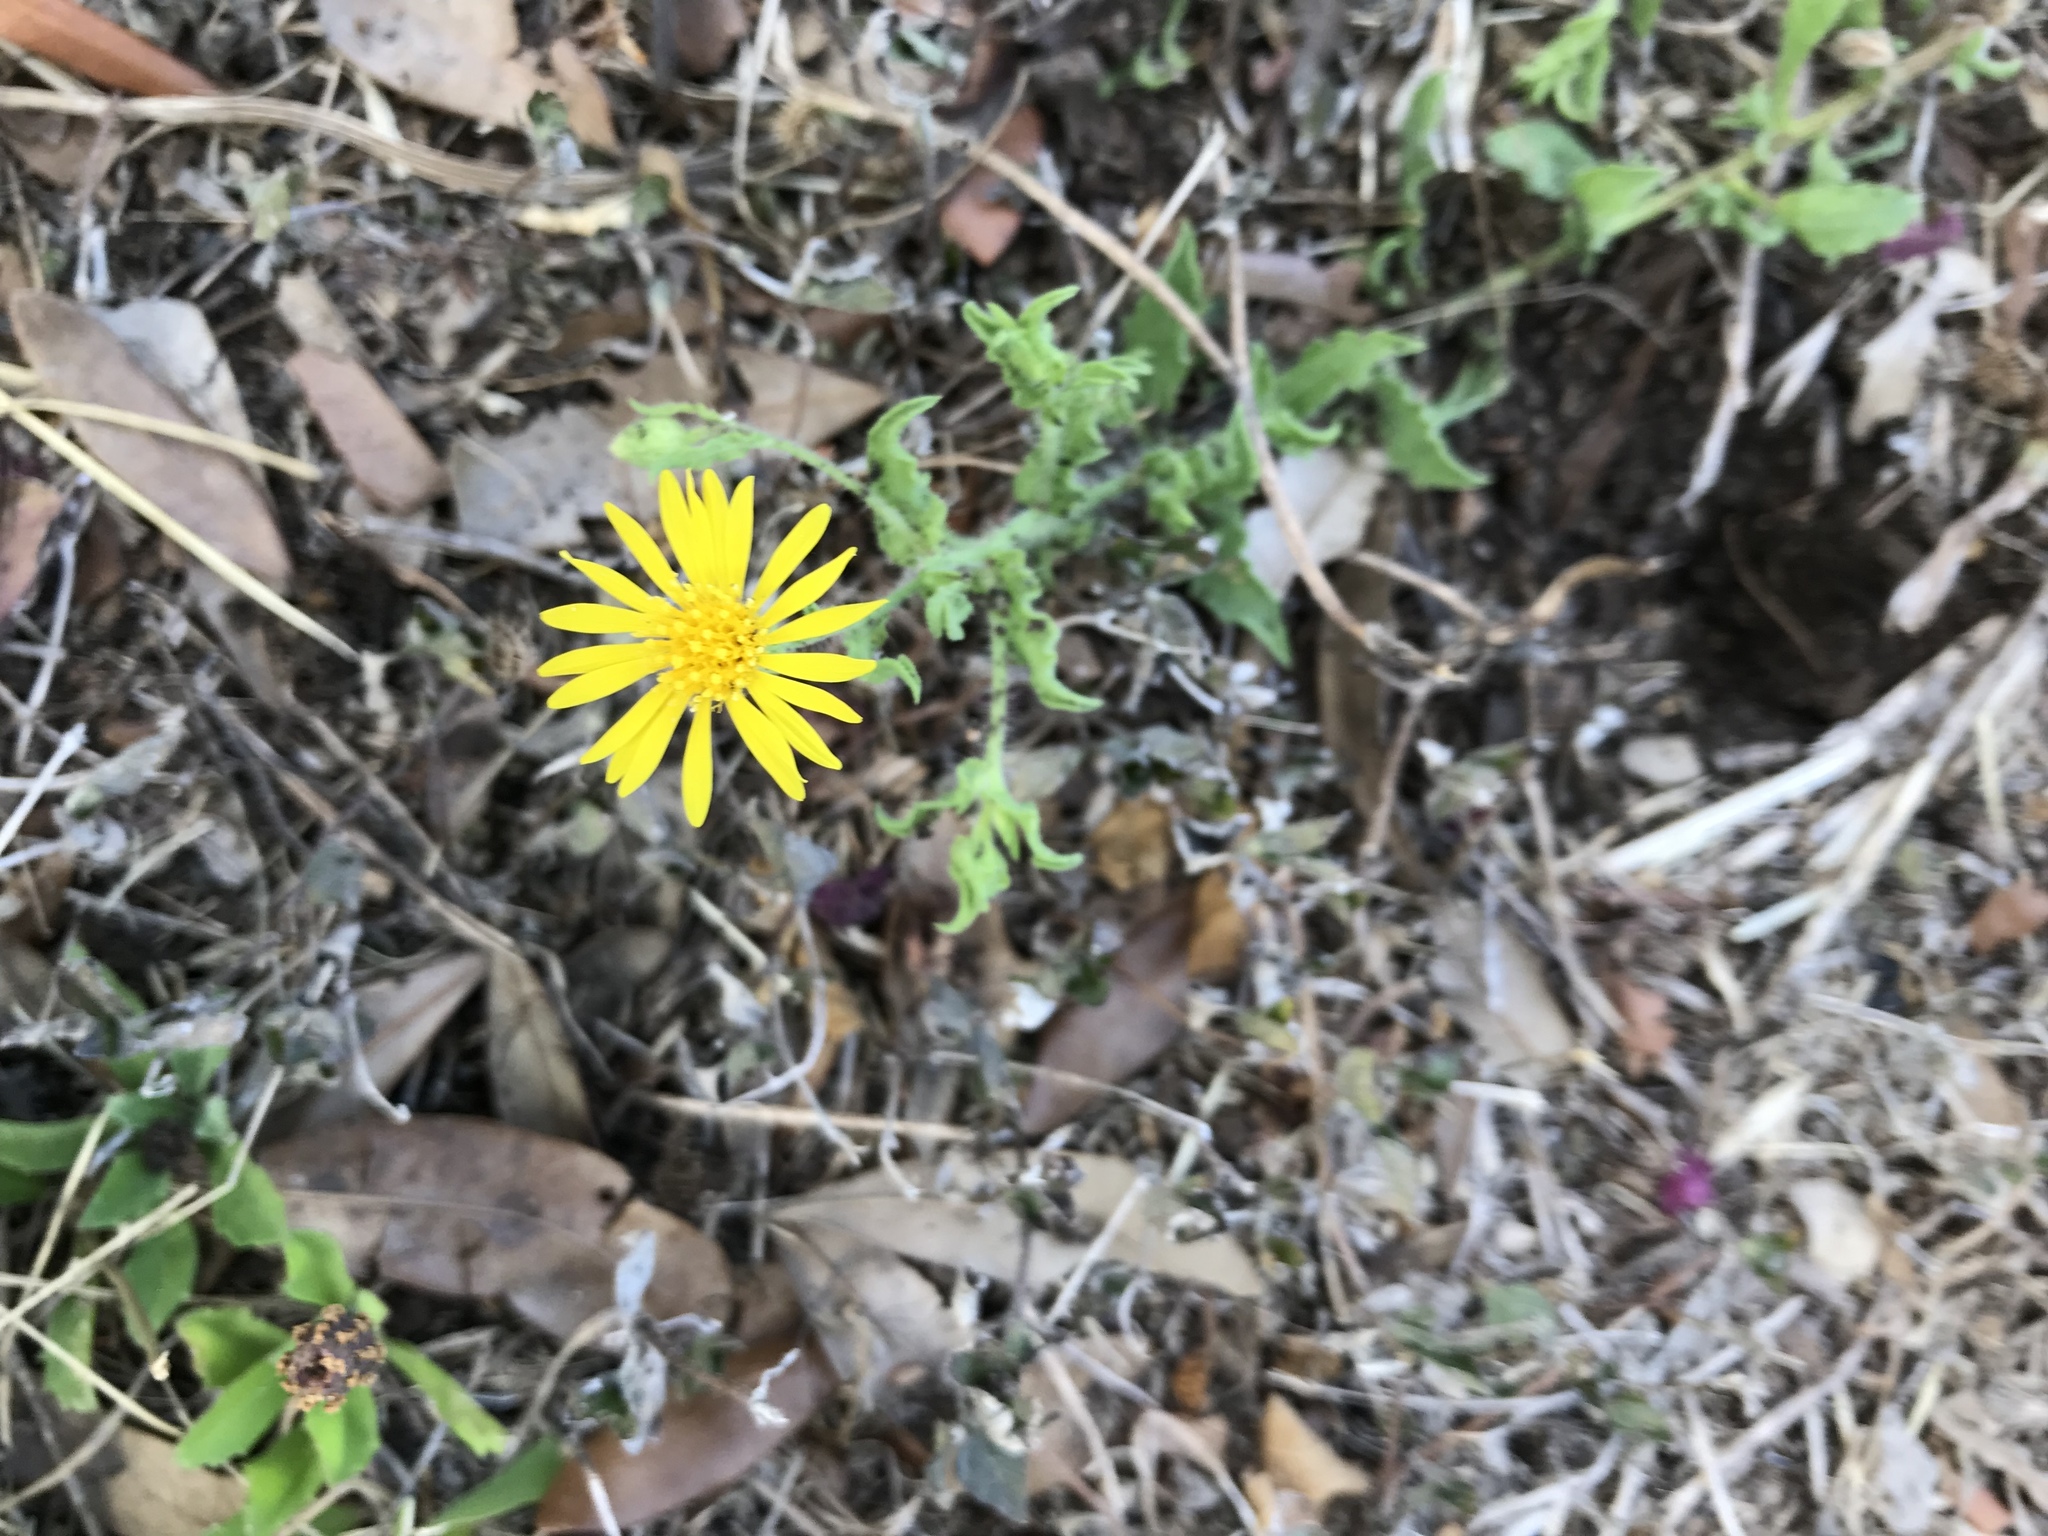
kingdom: Plantae
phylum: Tracheophyta
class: Magnoliopsida
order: Asterales
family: Asteraceae
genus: Heterotheca
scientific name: Heterotheca subaxillaris
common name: Camphorweed
